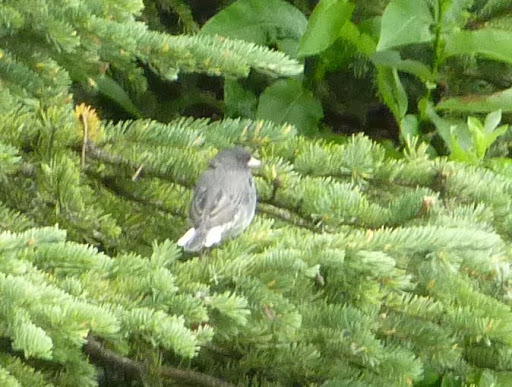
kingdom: Animalia
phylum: Chordata
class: Aves
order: Passeriformes
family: Passerellidae
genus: Junco
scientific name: Junco hyemalis
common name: Dark-eyed junco
